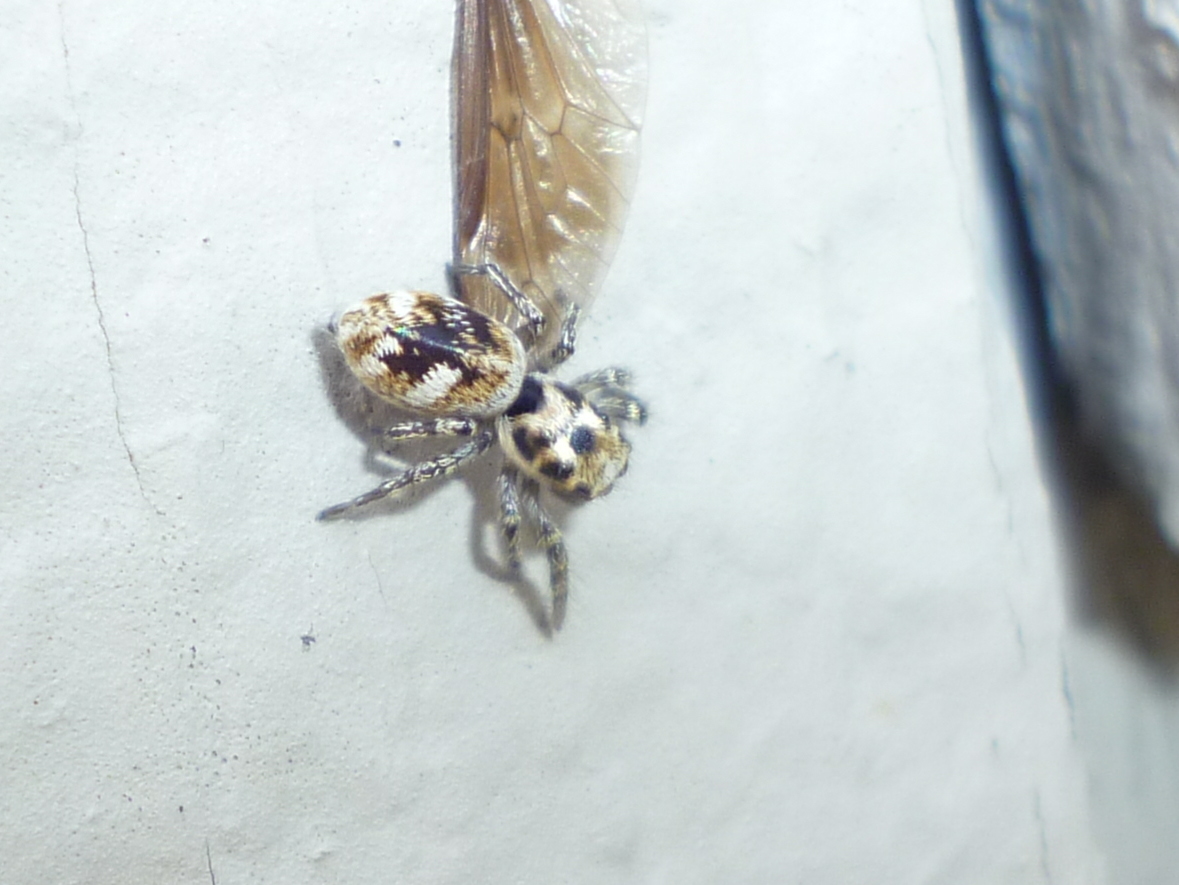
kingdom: Animalia
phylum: Arthropoda
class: Arachnida
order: Araneae
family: Salticidae
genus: Salticus
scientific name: Salticus scenicus
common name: Zebra jumper
